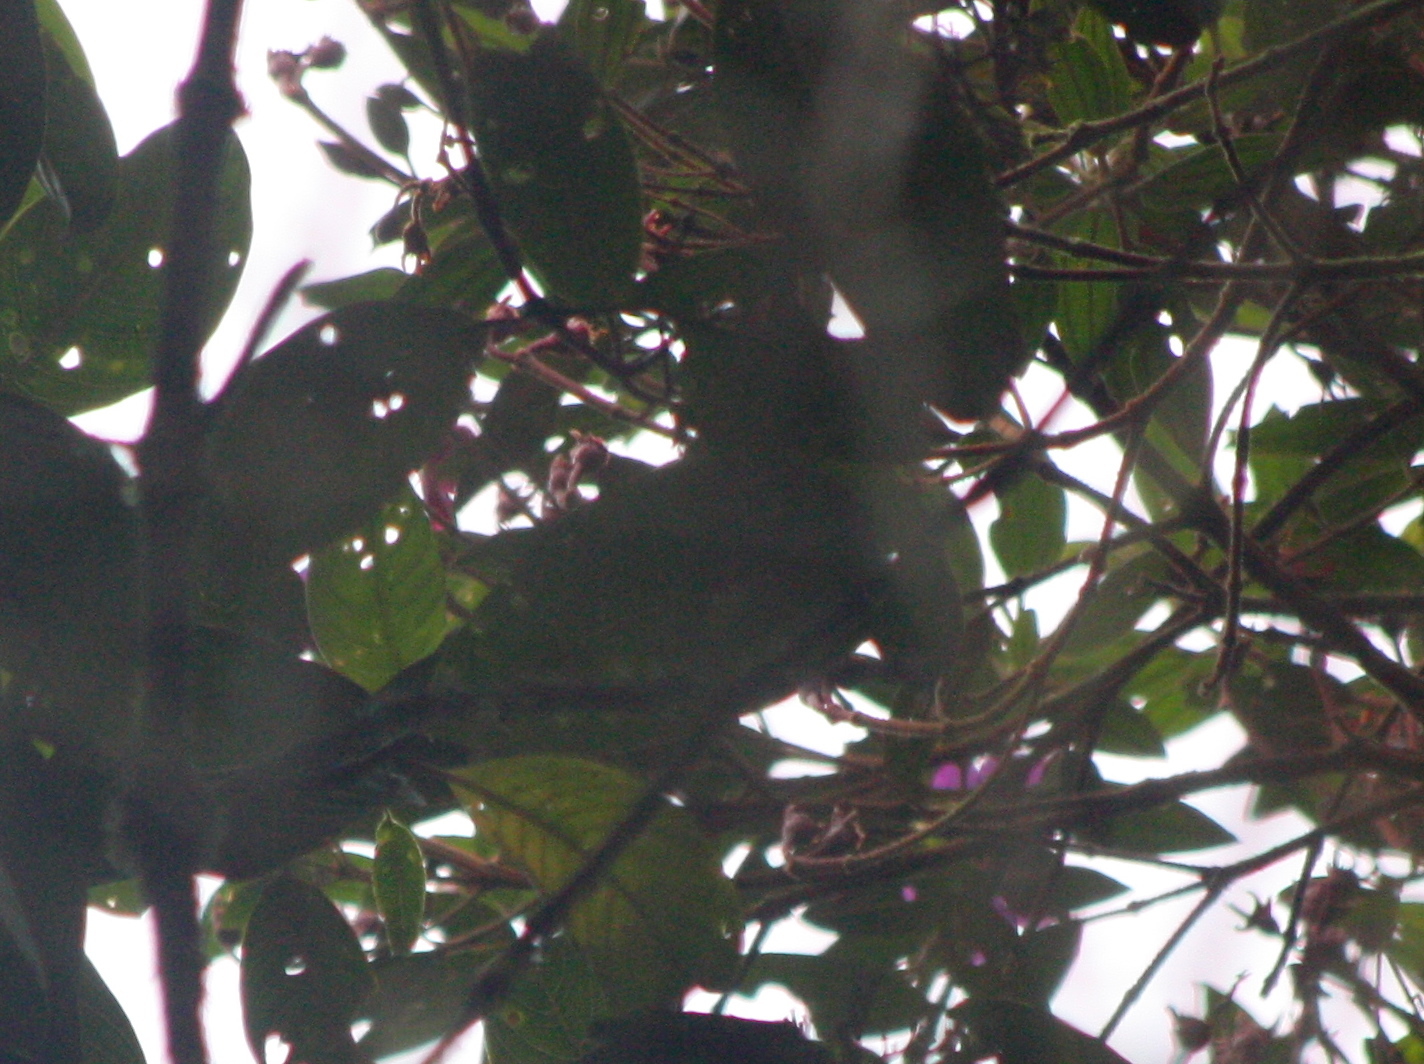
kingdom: Animalia
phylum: Chordata
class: Aves
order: Passeriformes
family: Cotingidae
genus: Pipreola
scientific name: Pipreola riefferii
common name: Green-and-black fruiteater
